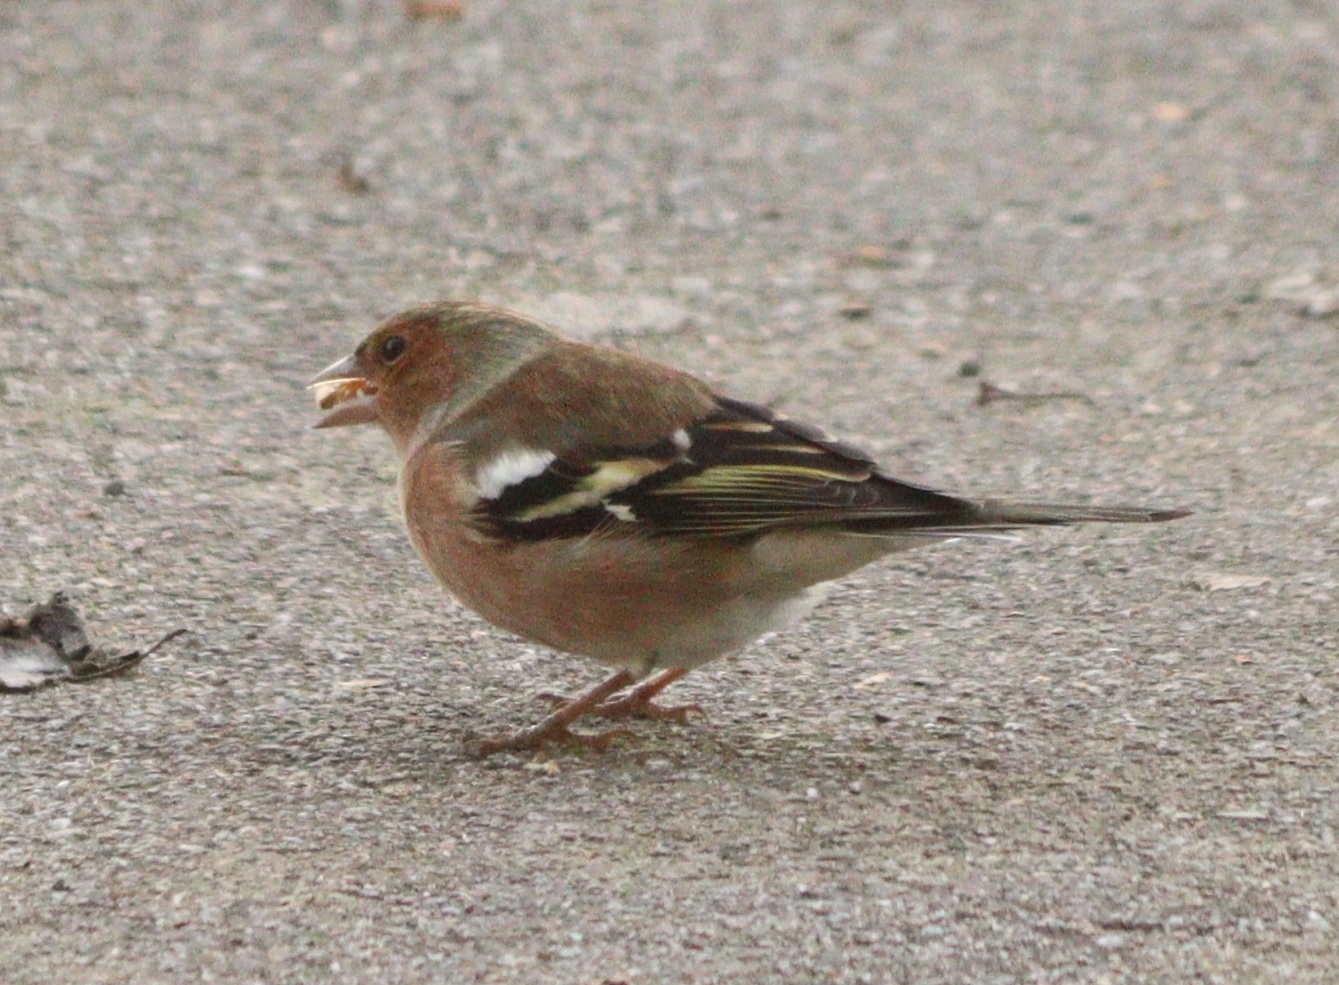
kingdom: Animalia
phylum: Chordata
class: Aves
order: Passeriformes
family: Fringillidae
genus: Fringilla
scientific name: Fringilla coelebs
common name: Common chaffinch
